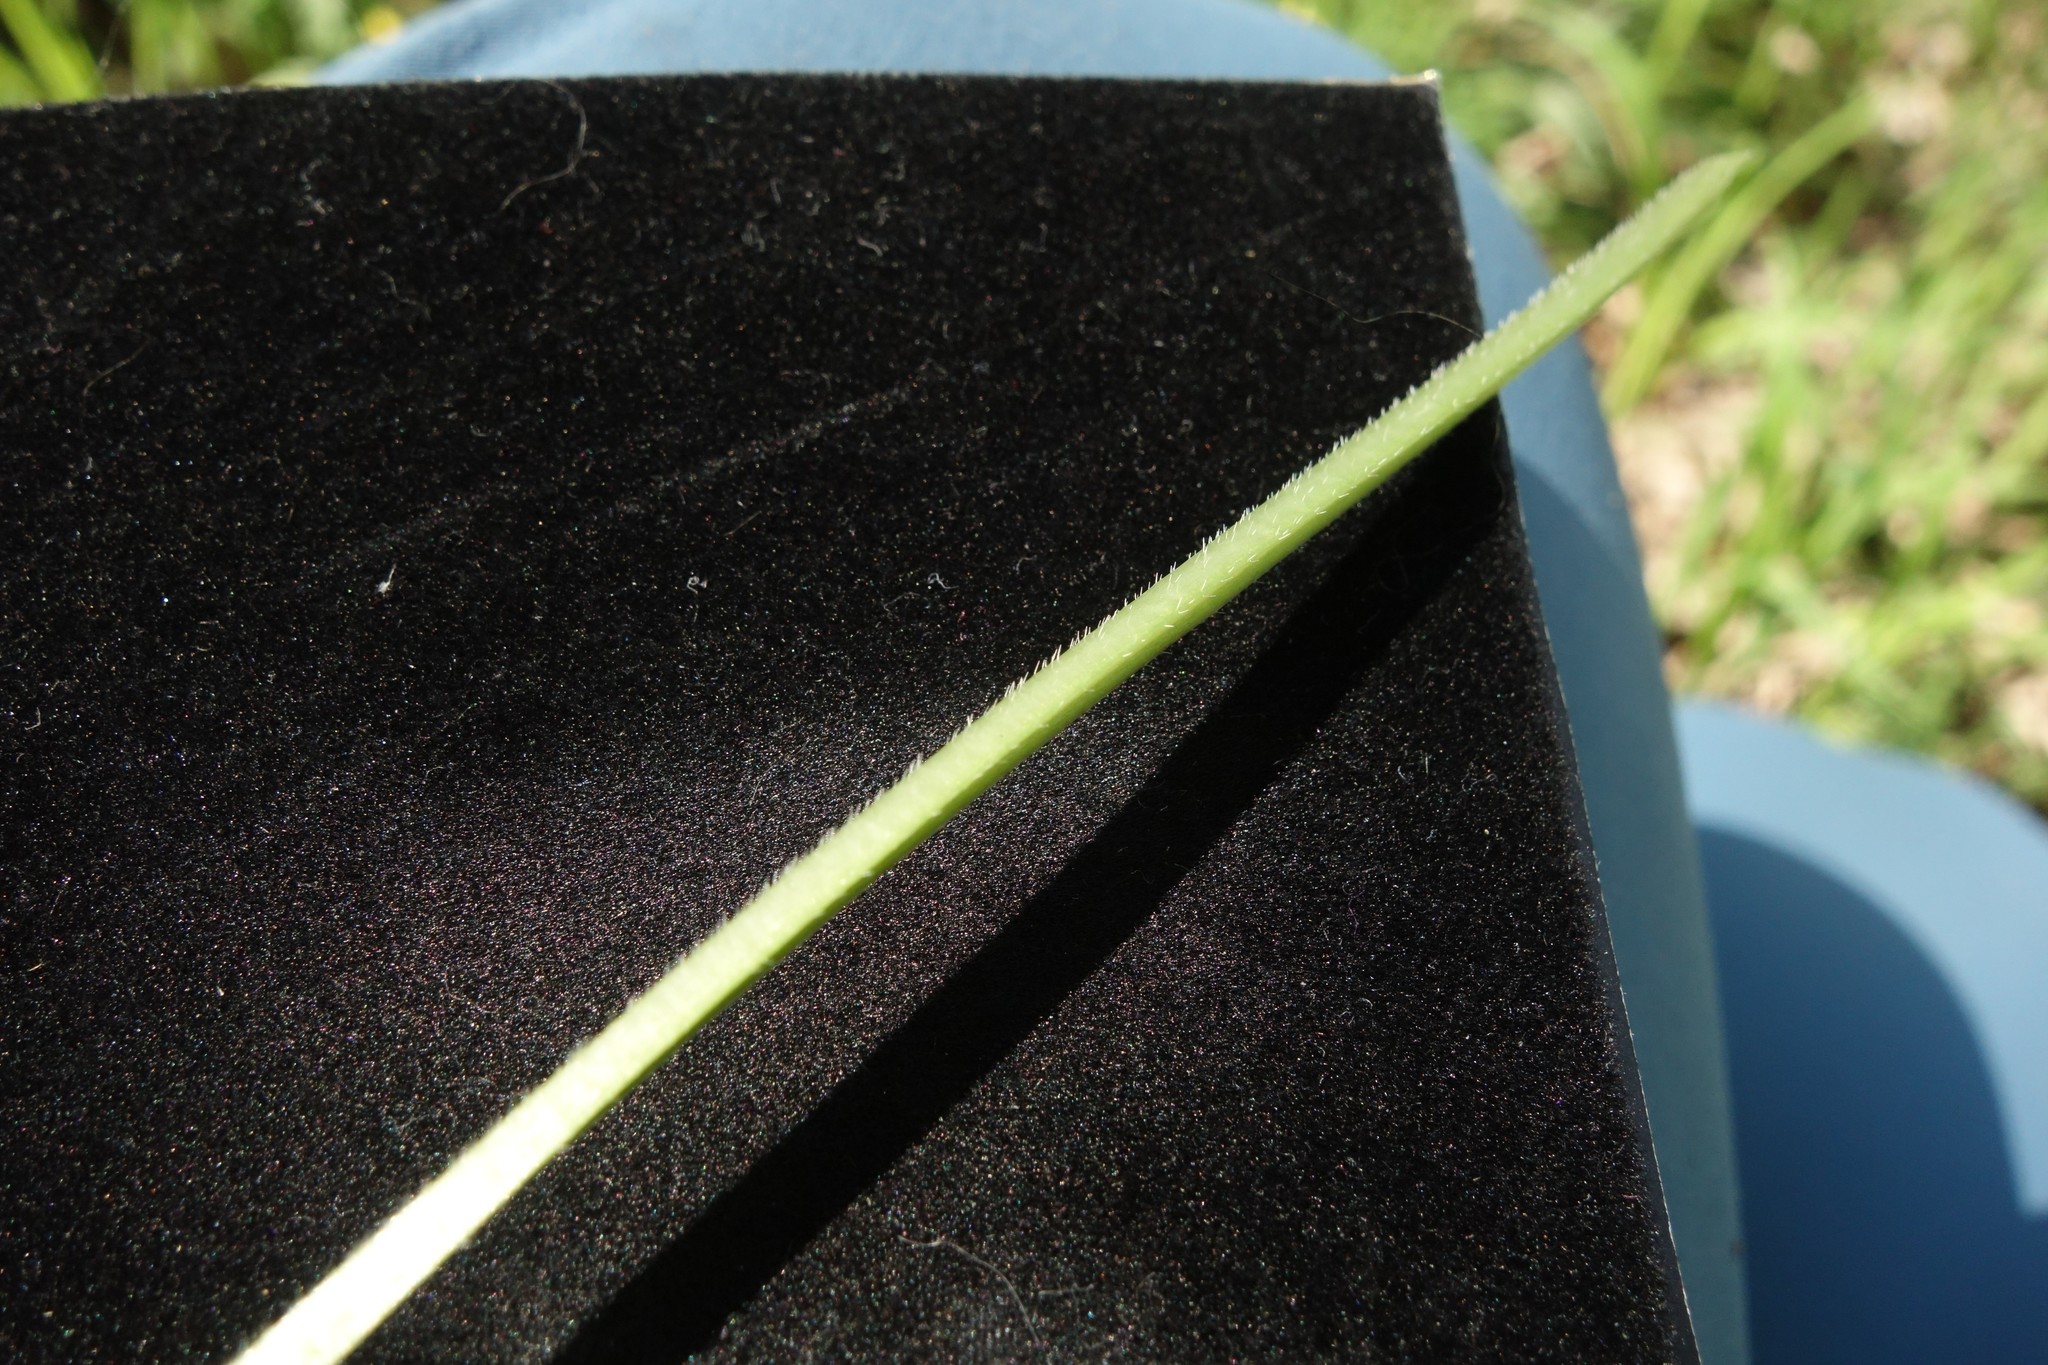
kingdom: Plantae
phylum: Tracheophyta
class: Magnoliopsida
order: Malpighiales
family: Violaceae
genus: Viola
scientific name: Viola mirabilis
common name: Wonder violet
